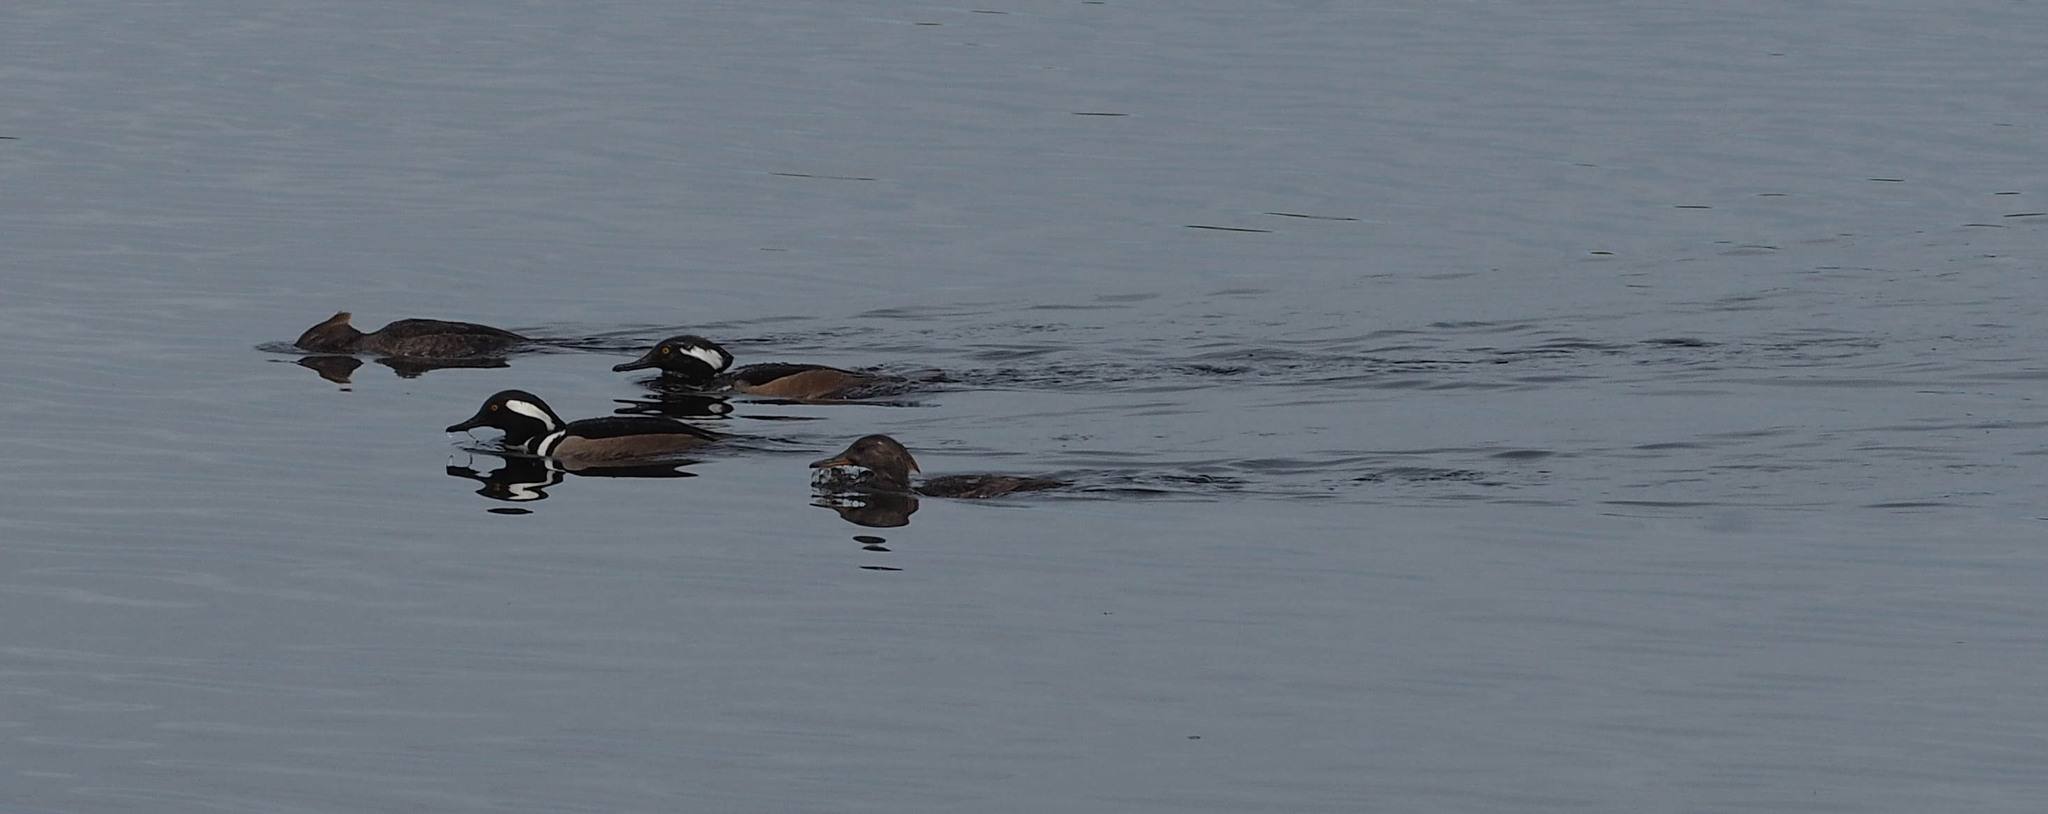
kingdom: Animalia
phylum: Chordata
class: Aves
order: Anseriformes
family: Anatidae
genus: Lophodytes
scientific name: Lophodytes cucullatus
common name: Hooded merganser
